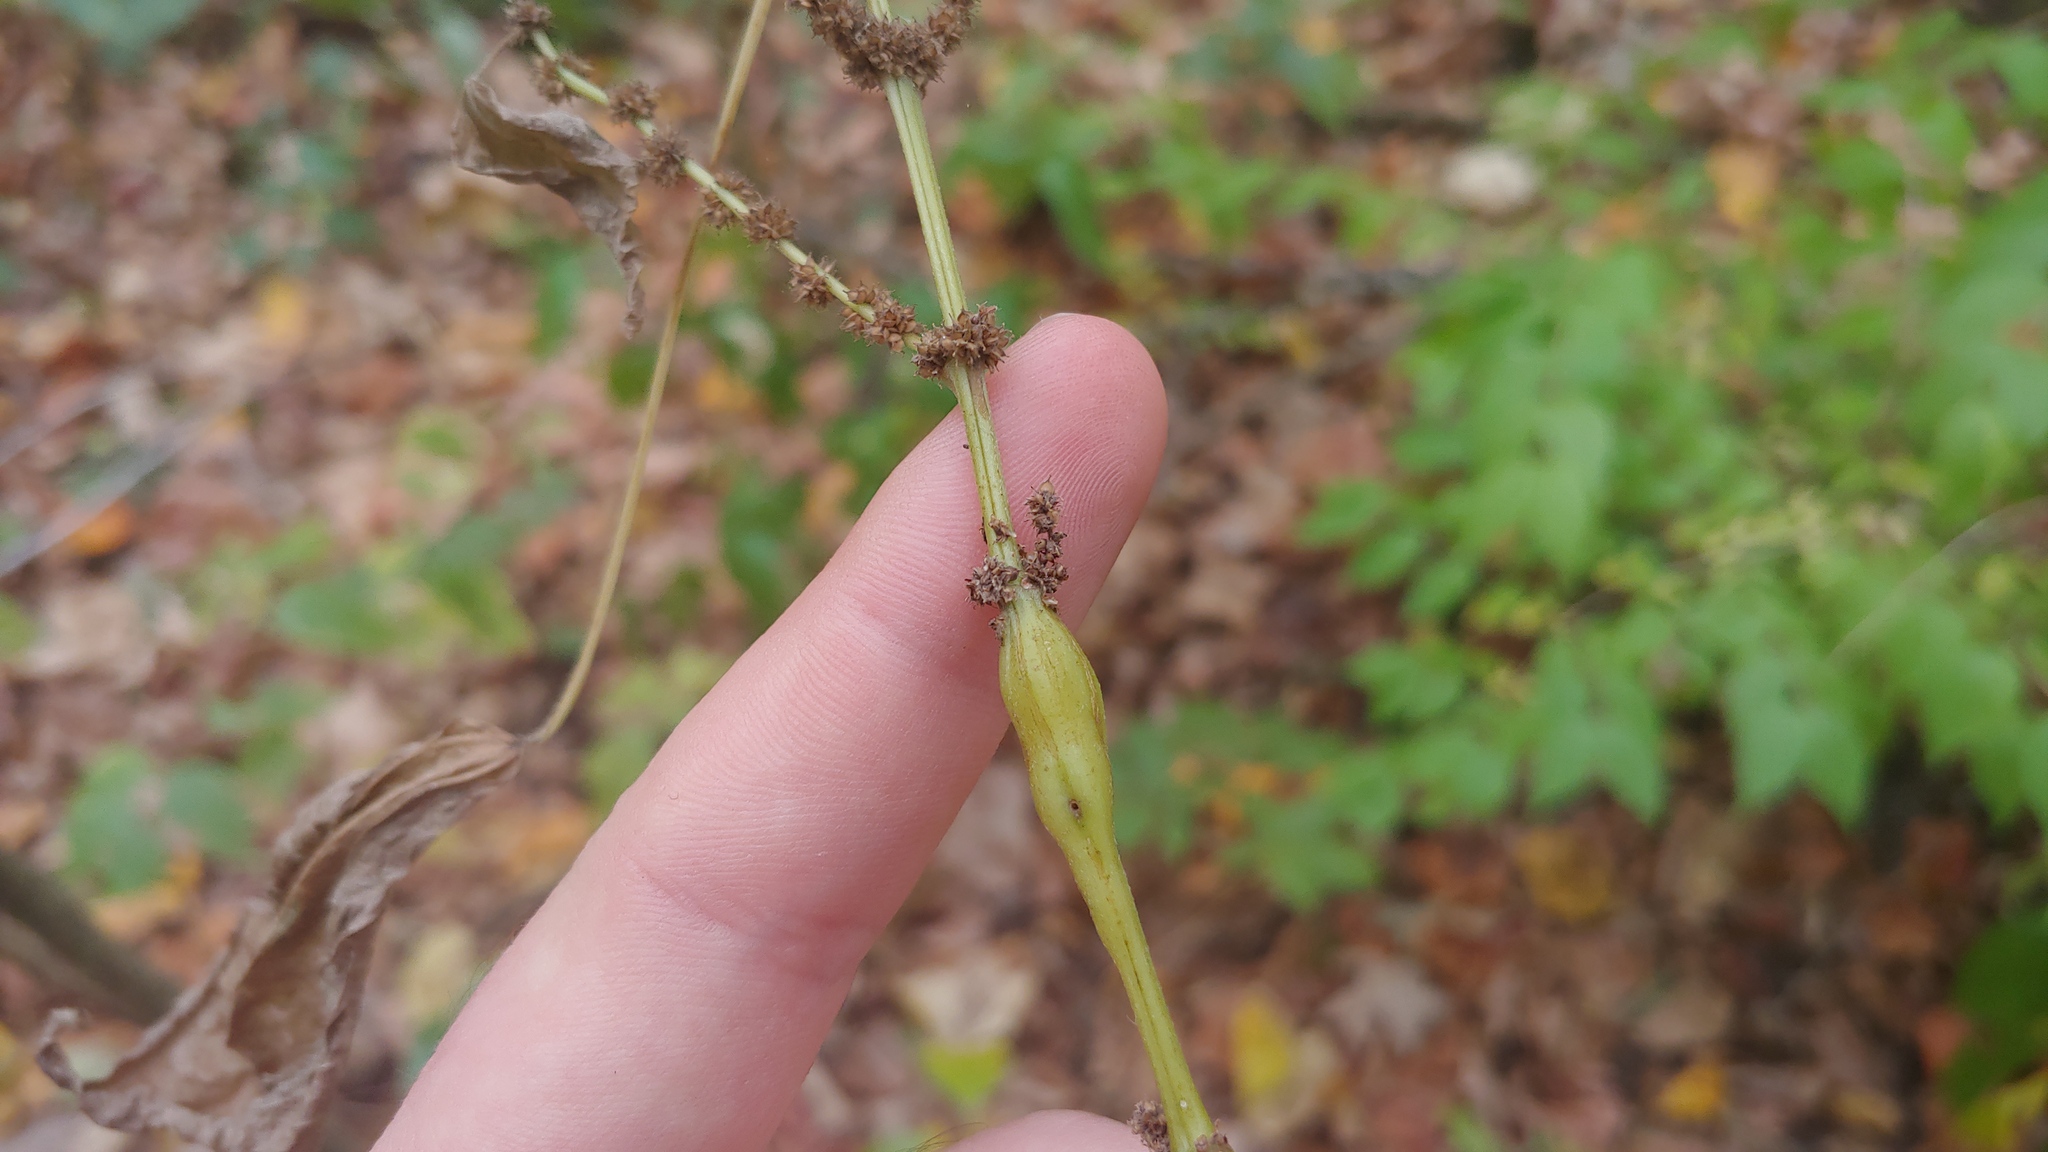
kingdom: Animalia
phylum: Arthropoda
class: Insecta
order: Diptera
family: Cecidomyiidae
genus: Neolasioptera
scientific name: Neolasioptera boehmeriae
